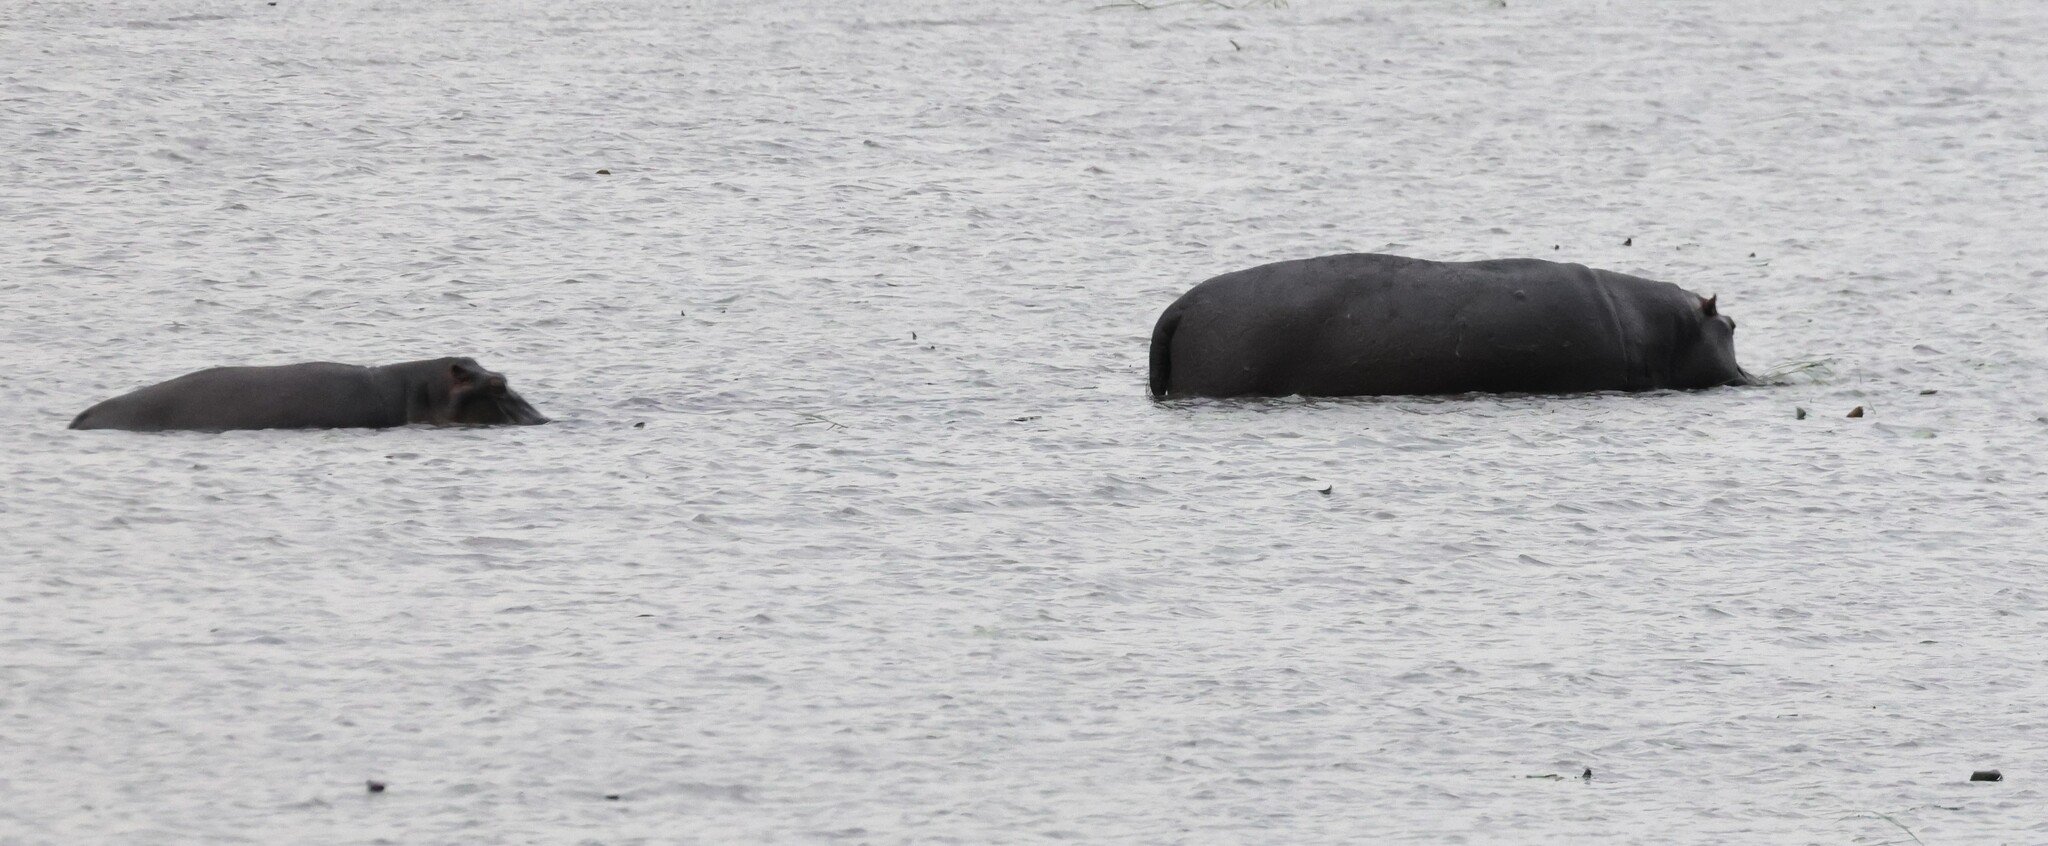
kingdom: Animalia
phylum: Chordata
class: Mammalia
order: Artiodactyla
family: Hippopotamidae
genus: Hippopotamus
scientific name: Hippopotamus amphibius
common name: Common hippopotamus
